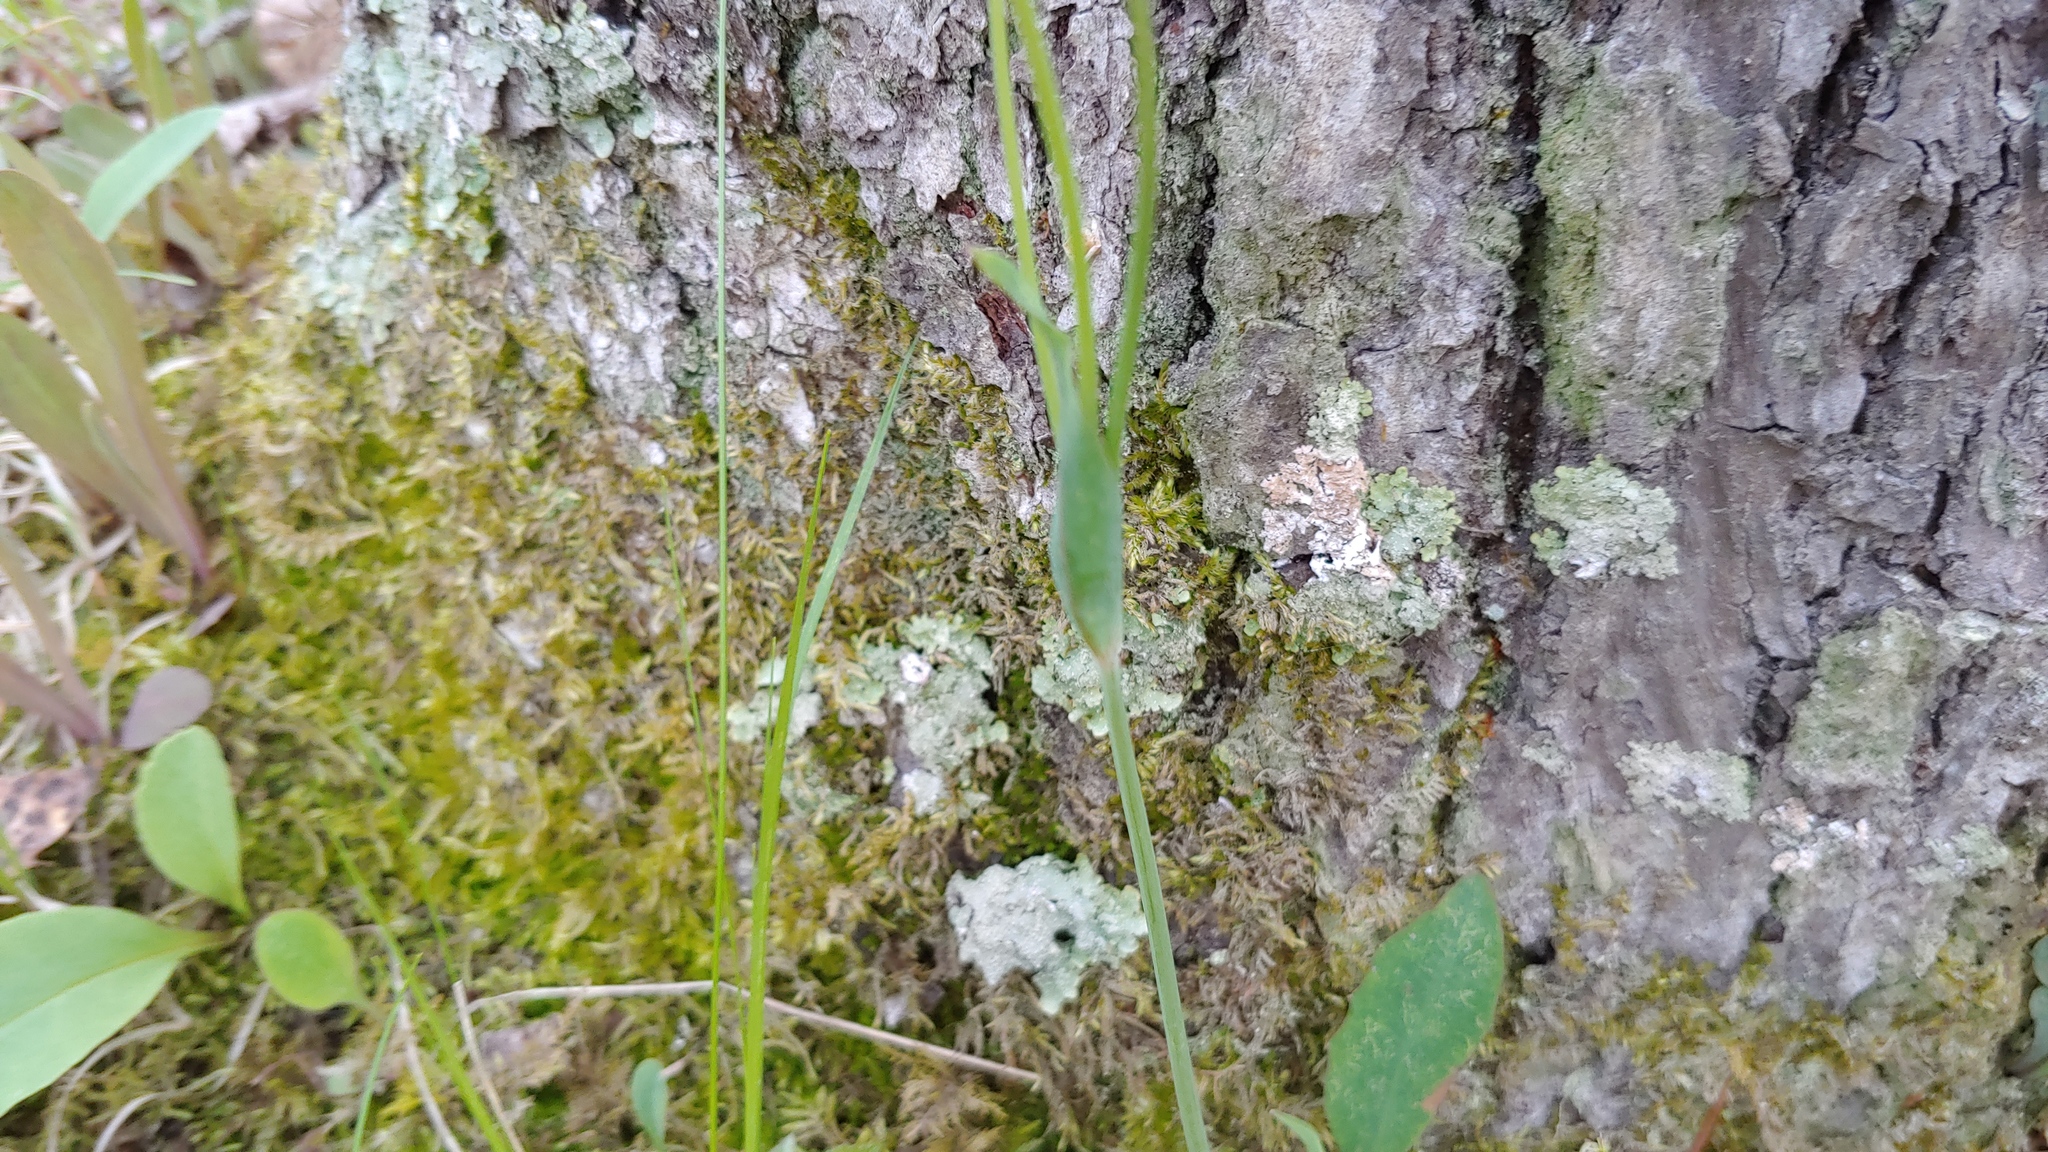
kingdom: Plantae
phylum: Tracheophyta
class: Magnoliopsida
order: Asterales
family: Asteraceae
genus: Krigia
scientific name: Krigia biflora
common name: Orange dwarf-dandelion
